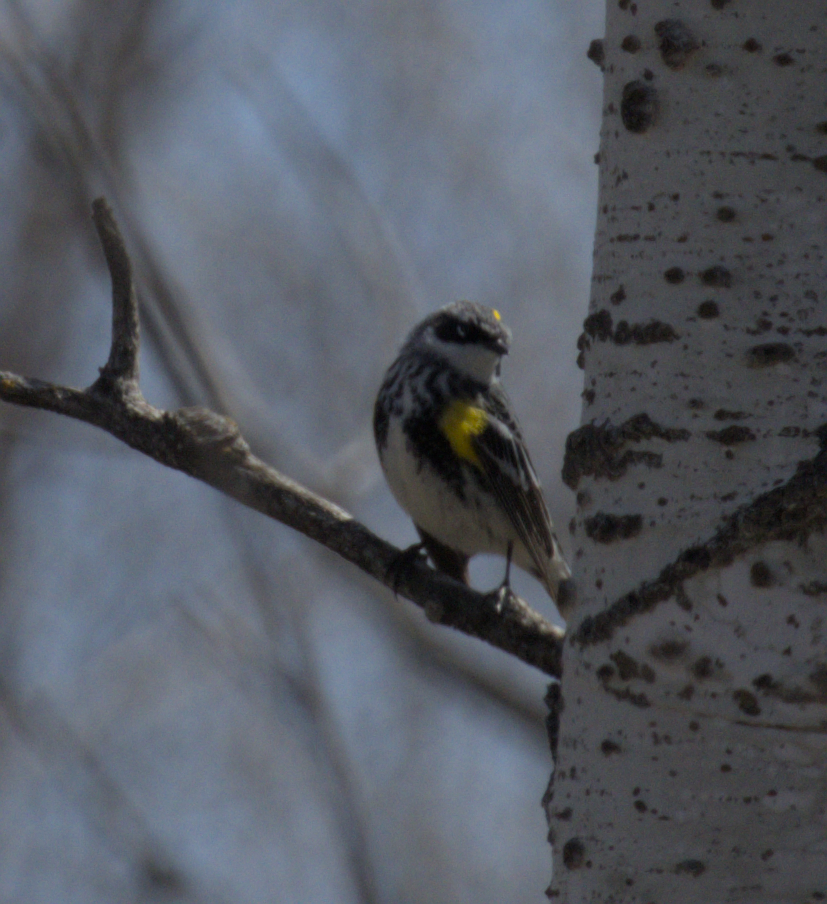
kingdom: Animalia
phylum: Chordata
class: Aves
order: Passeriformes
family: Parulidae
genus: Setophaga
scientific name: Setophaga coronata
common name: Myrtle warbler
